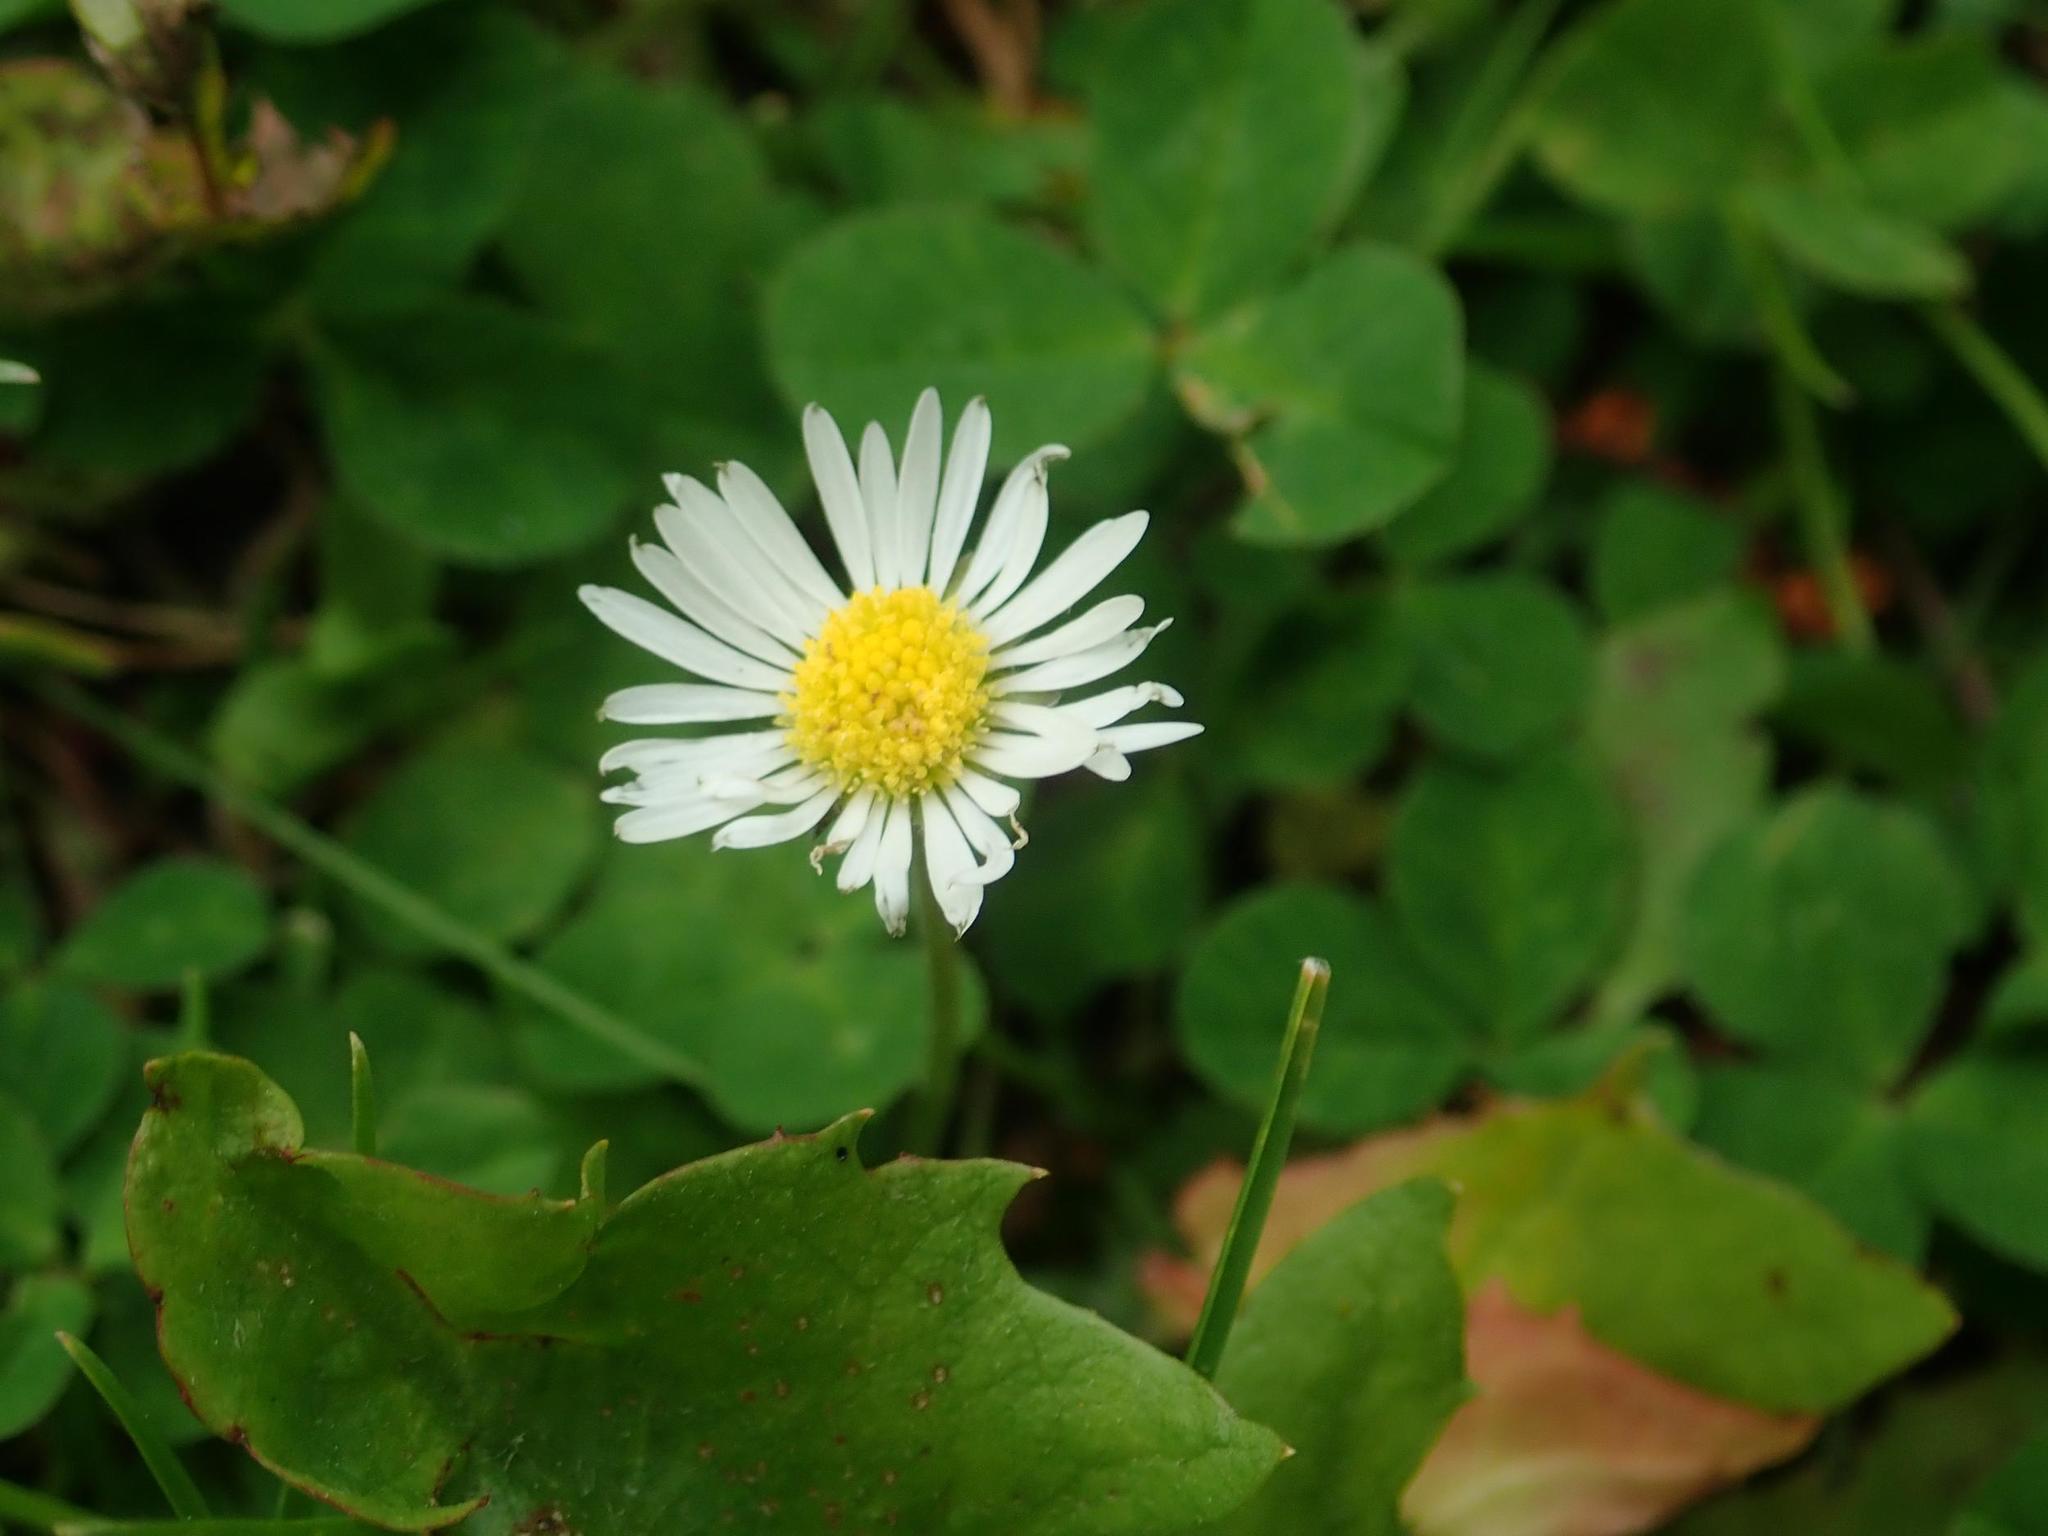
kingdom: Plantae
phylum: Tracheophyta
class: Magnoliopsida
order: Asterales
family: Asteraceae
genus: Bellis
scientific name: Bellis perennis
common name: Lawndaisy
